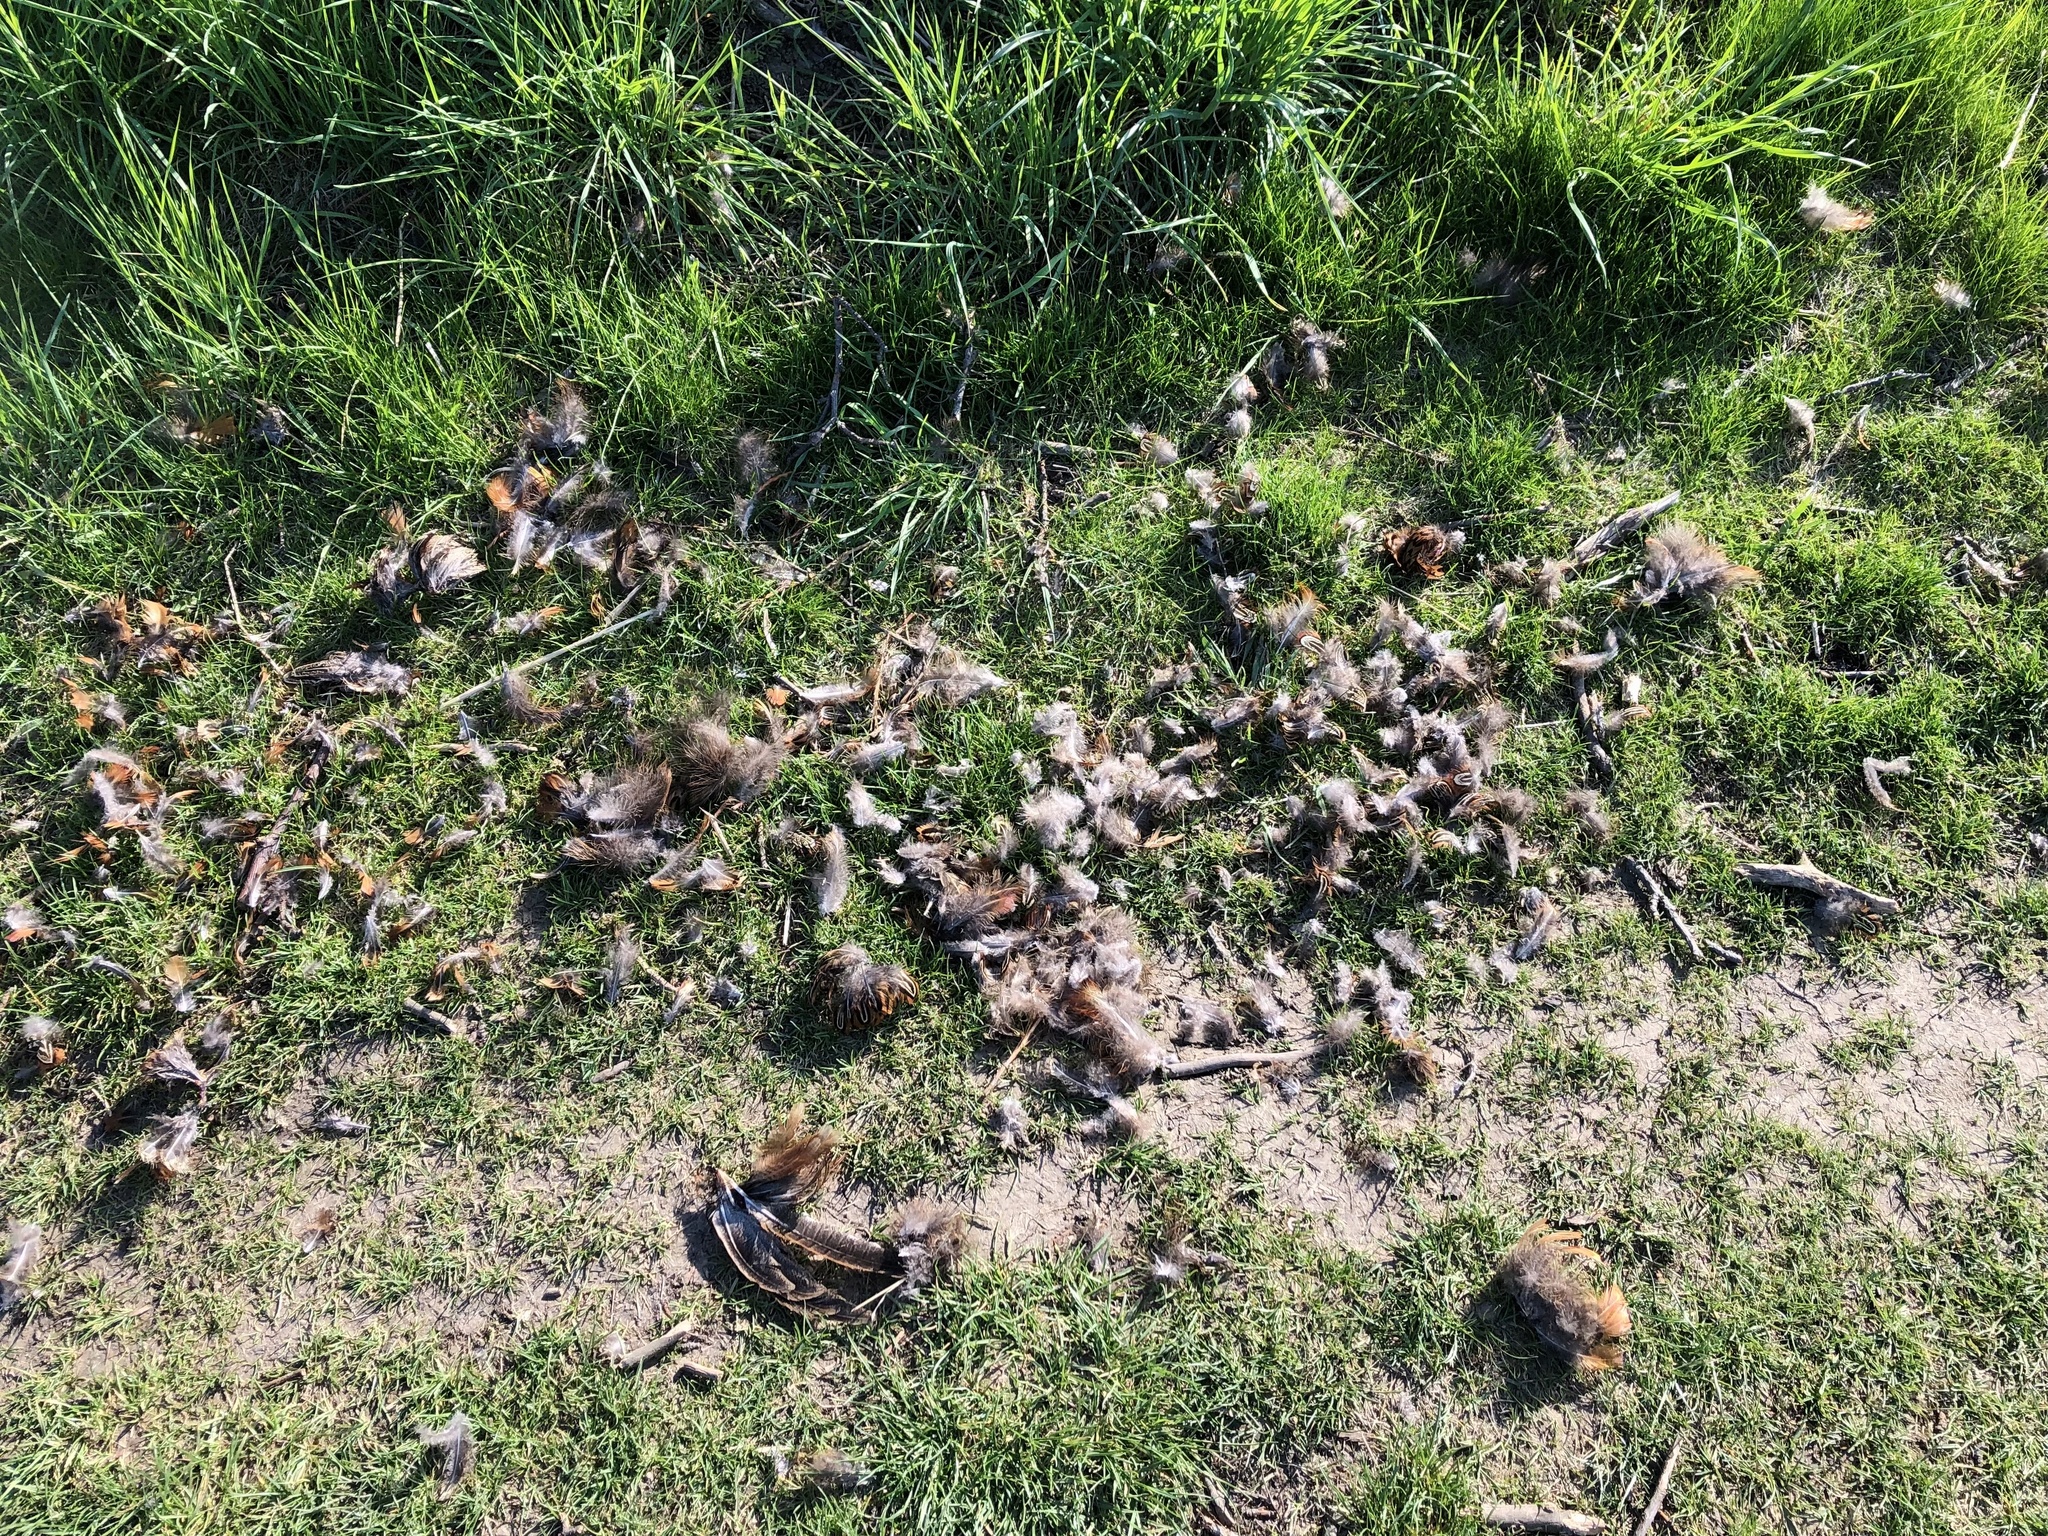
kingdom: Animalia
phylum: Chordata
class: Aves
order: Galliformes
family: Phasianidae
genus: Phasianus
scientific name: Phasianus colchicus
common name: Common pheasant
